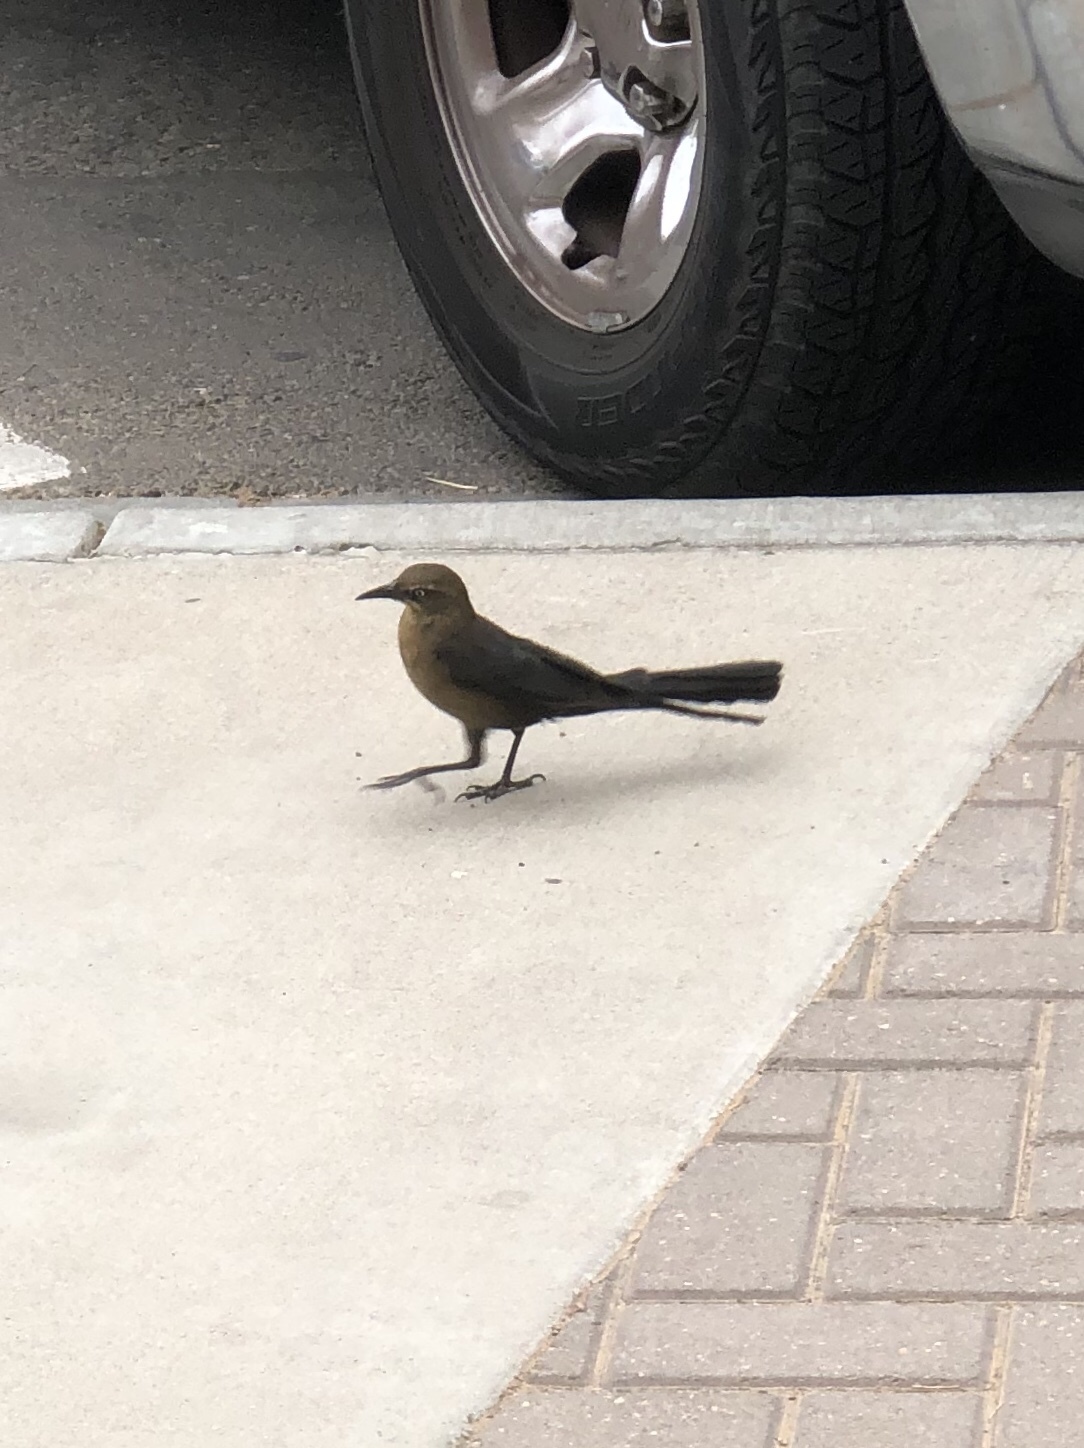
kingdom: Animalia
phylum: Chordata
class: Aves
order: Passeriformes
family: Icteridae
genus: Quiscalus
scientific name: Quiscalus mexicanus
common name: Great-tailed grackle
